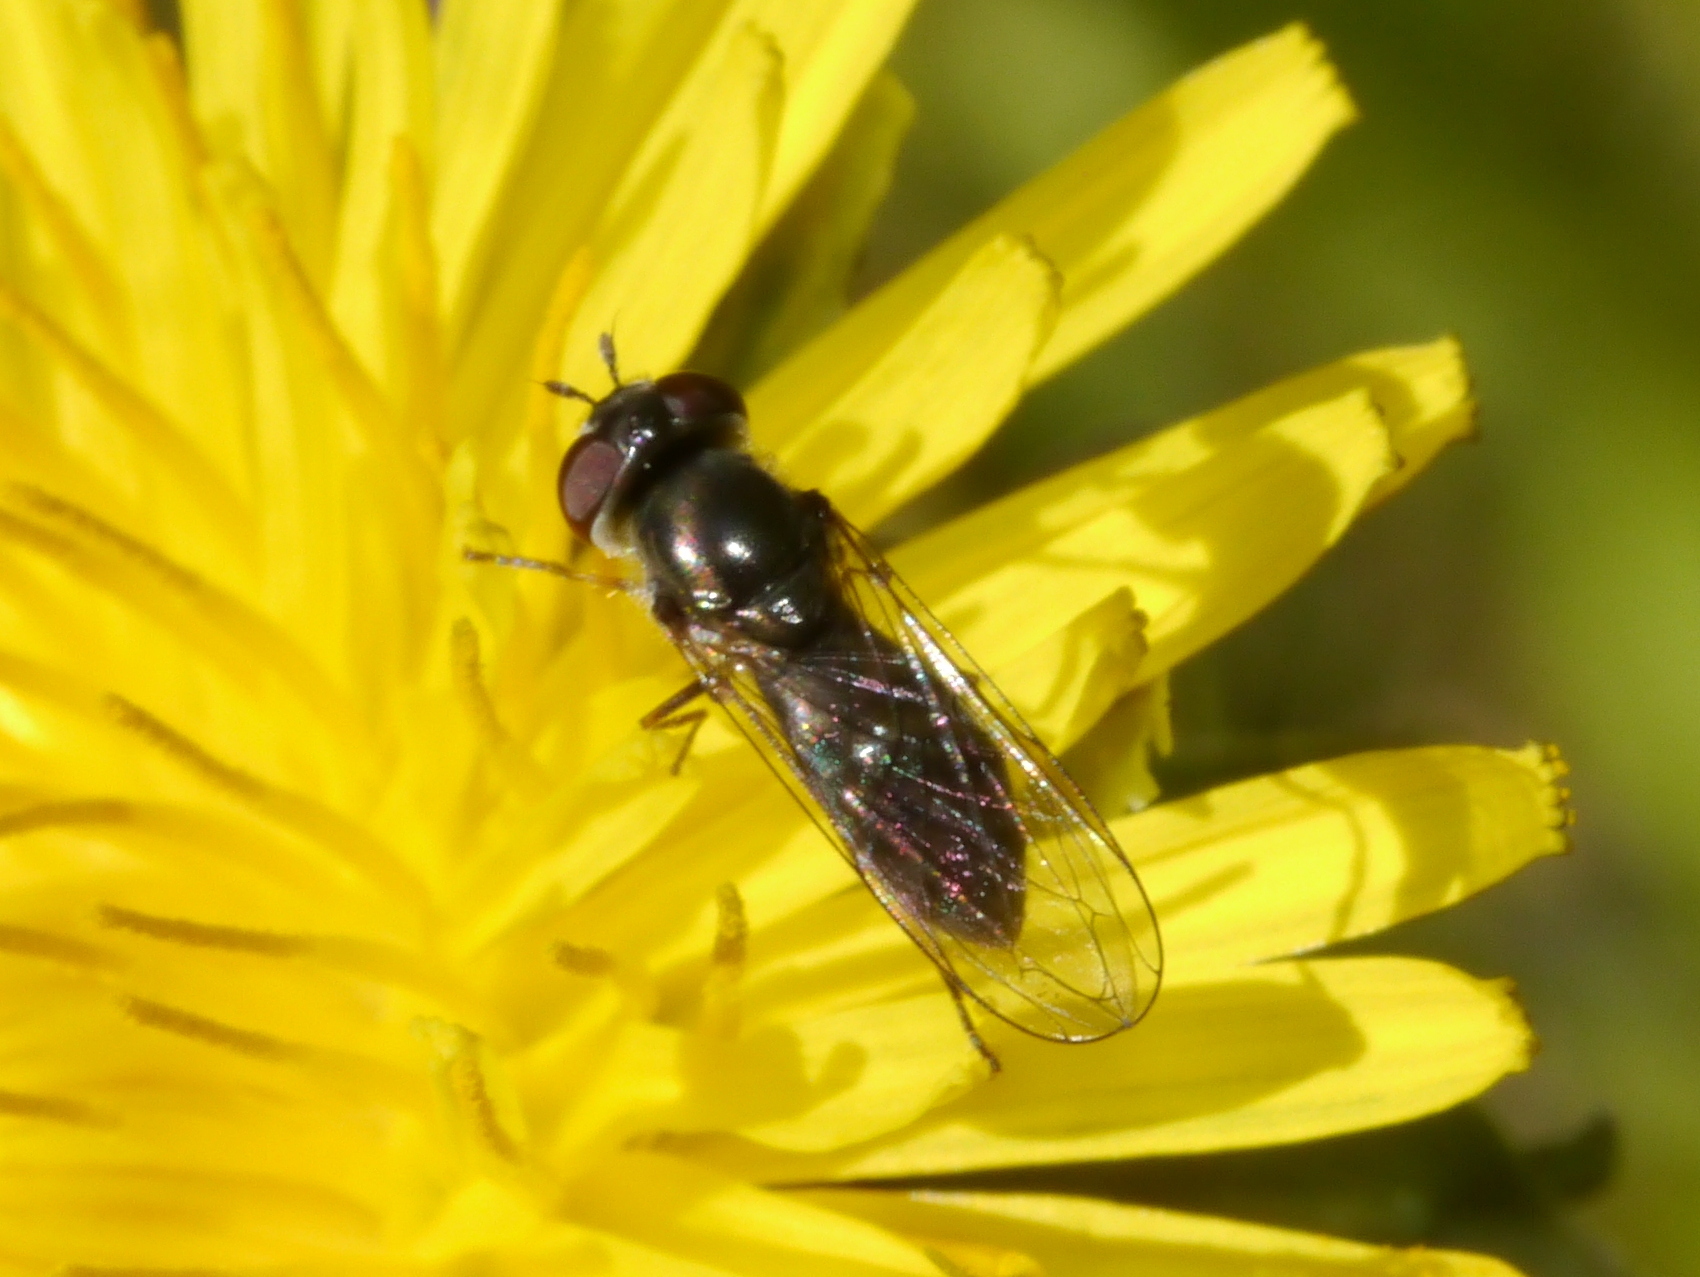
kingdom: Animalia
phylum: Arthropoda
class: Insecta
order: Diptera
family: Syrphidae
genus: Platycheirus
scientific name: Platycheirus trichopus
